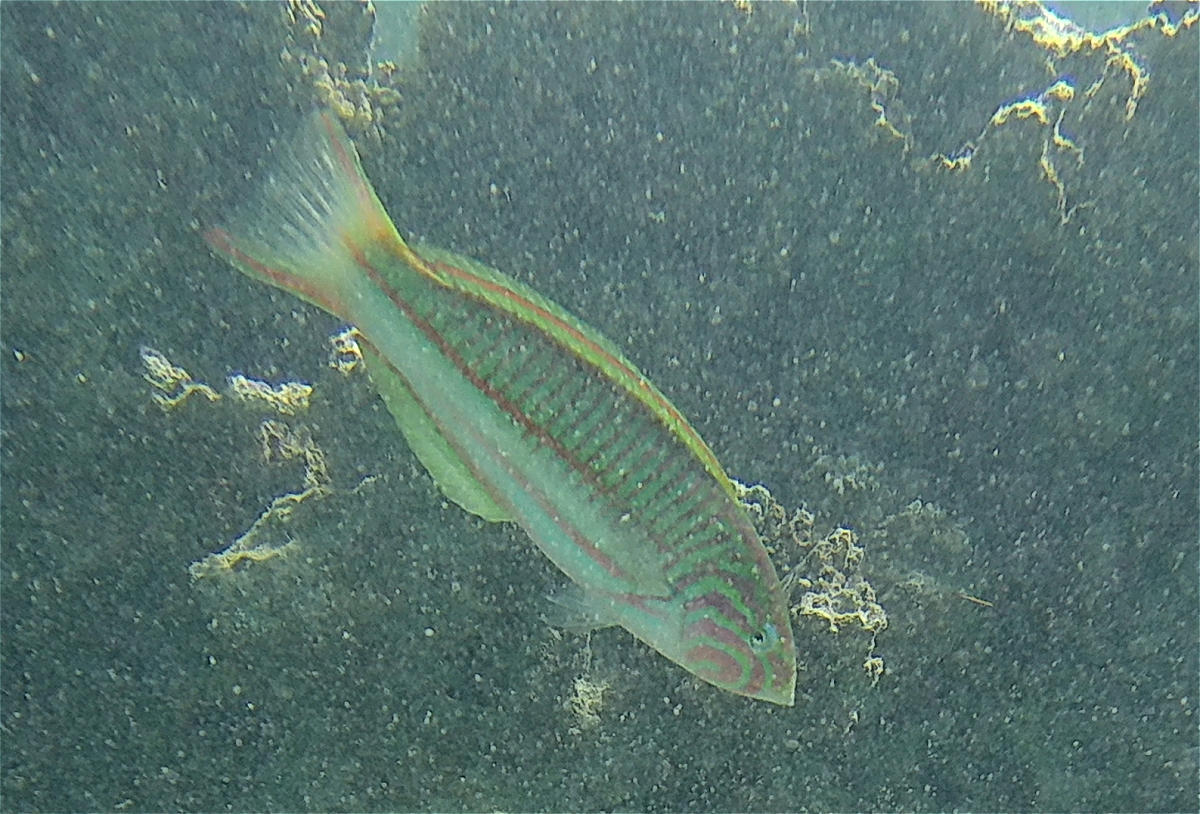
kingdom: Animalia
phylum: Chordata
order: Perciformes
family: Labridae
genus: Thalassoma
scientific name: Thalassoma rueppellii
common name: Klunzinger's wrasse
